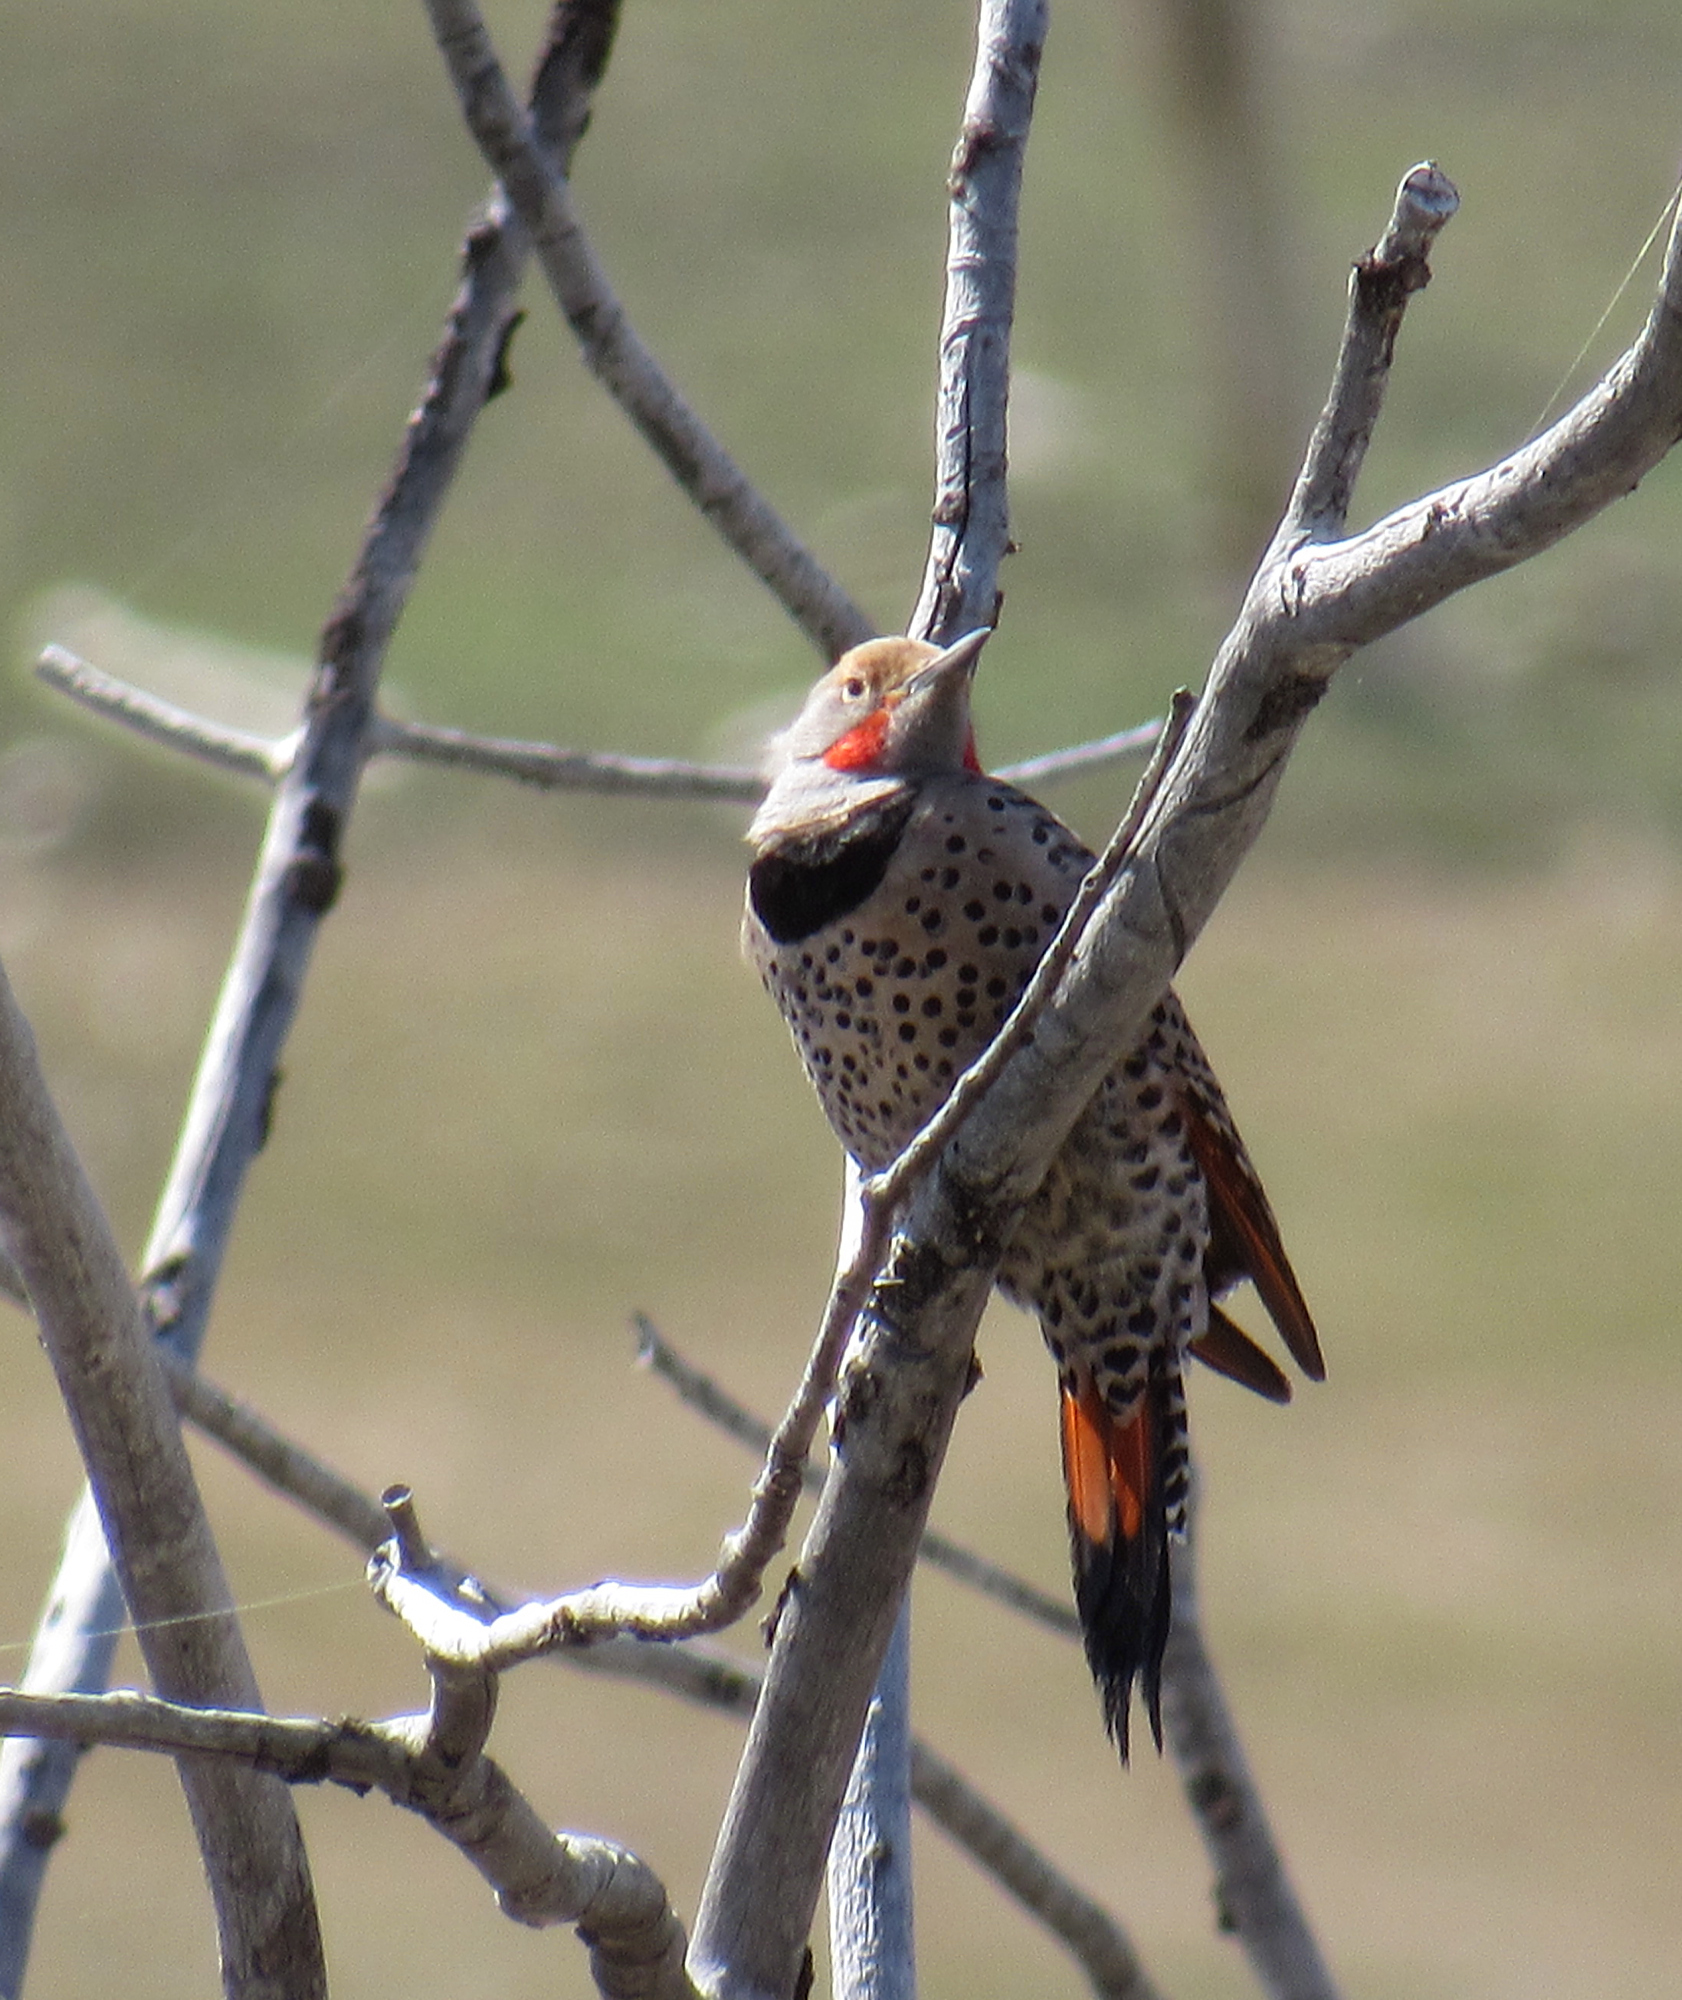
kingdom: Animalia
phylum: Chordata
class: Aves
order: Piciformes
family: Picidae
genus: Colaptes
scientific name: Colaptes auratus
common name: Northern flicker
